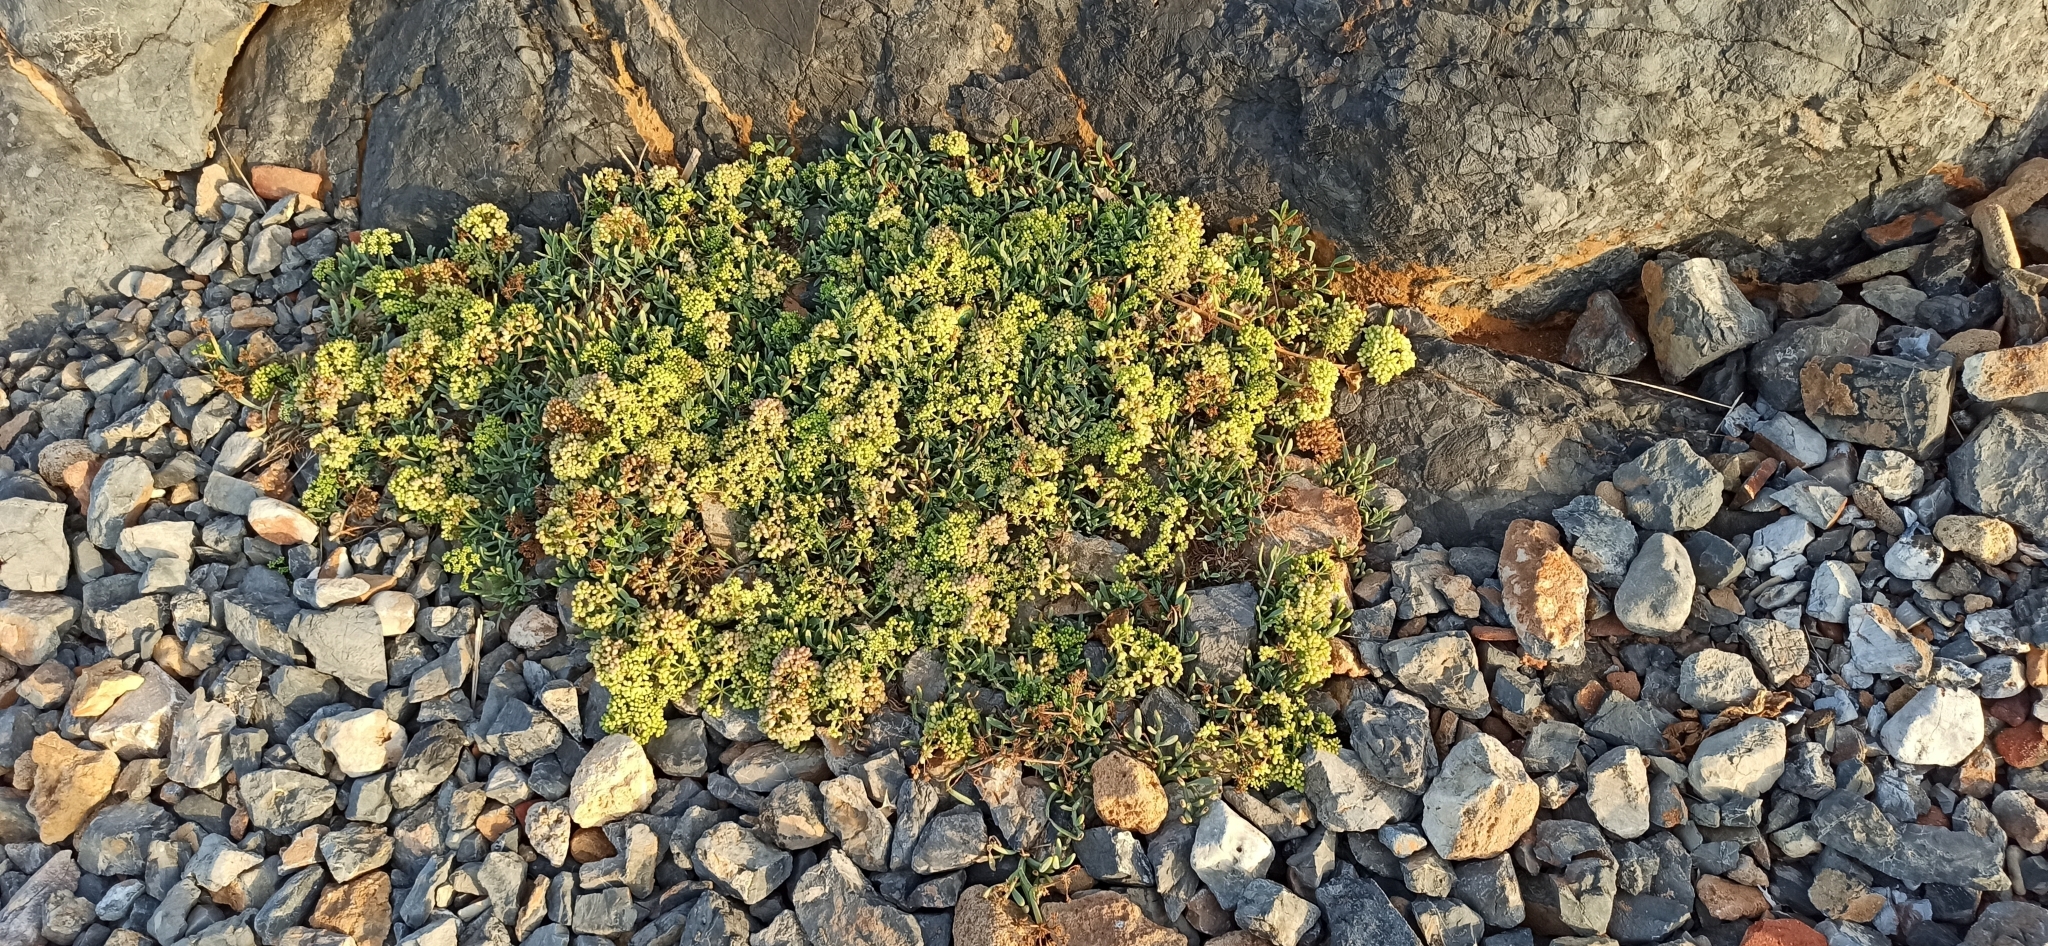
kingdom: Plantae
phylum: Tracheophyta
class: Magnoliopsida
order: Apiales
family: Apiaceae
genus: Crithmum
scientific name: Crithmum maritimum
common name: Rock samphire
